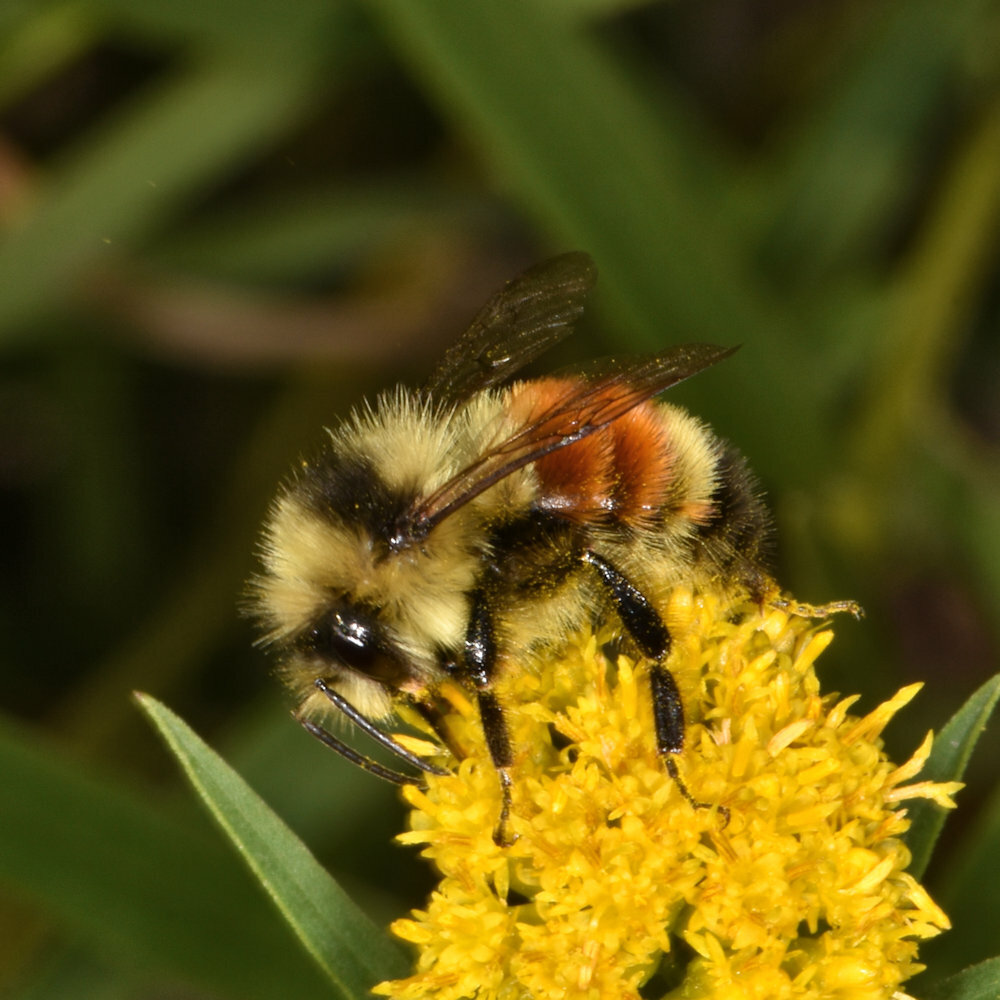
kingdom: Animalia
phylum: Arthropoda
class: Insecta
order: Hymenoptera
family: Apidae
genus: Bombus
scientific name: Bombus ternarius
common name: Tri-colored bumble bee
